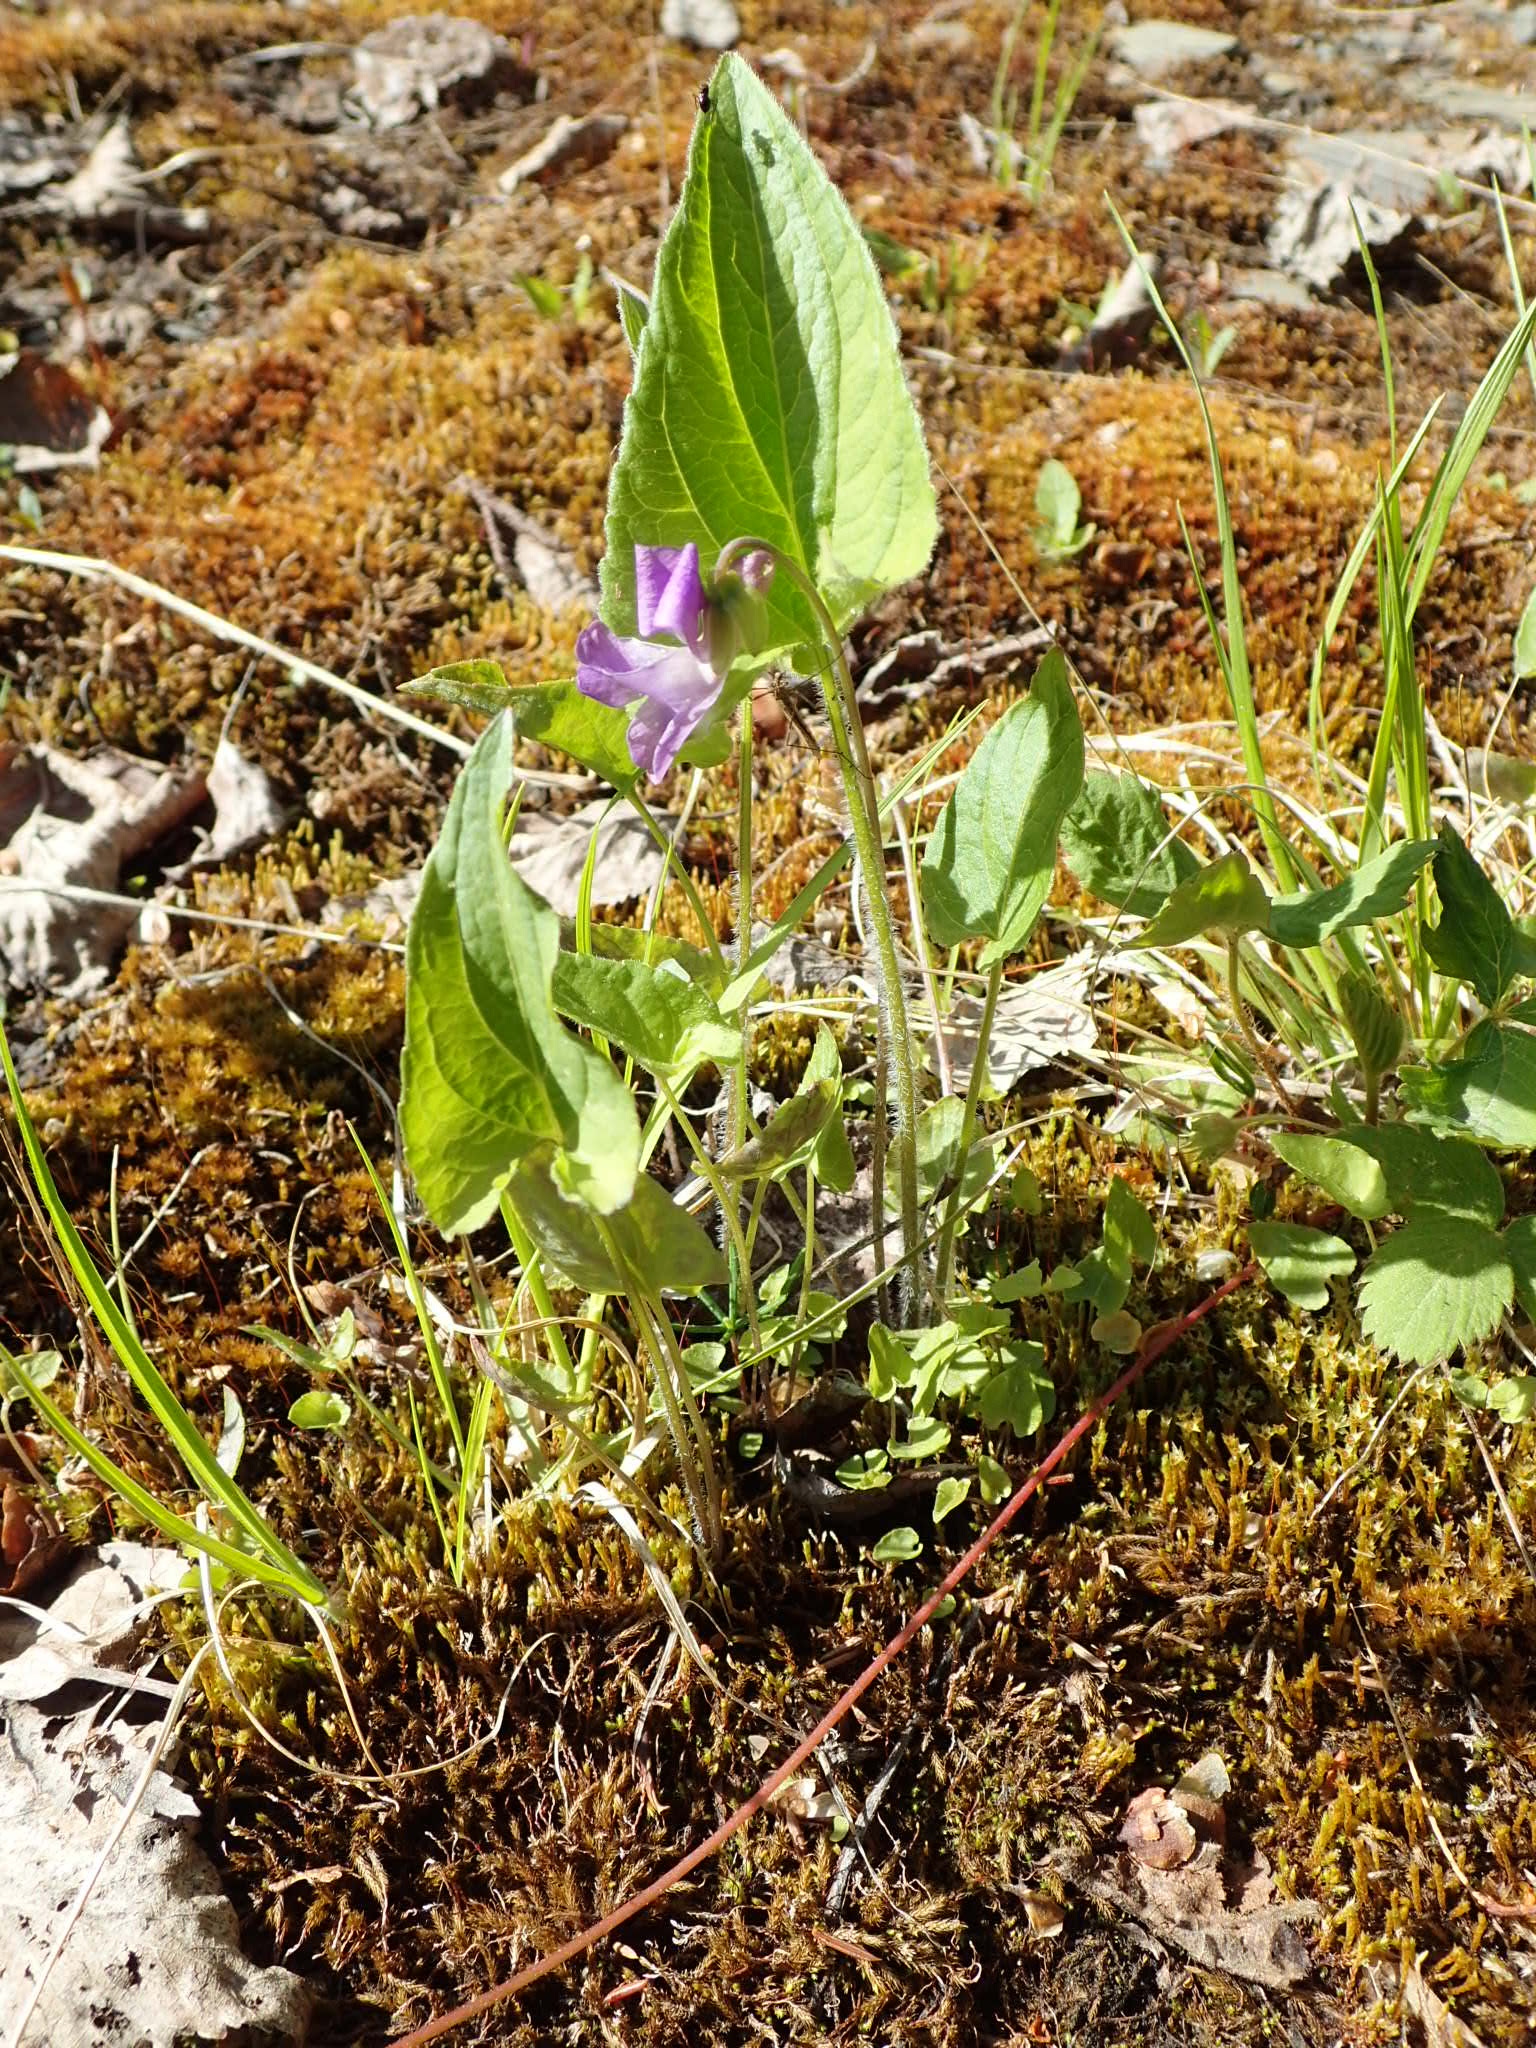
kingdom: Plantae
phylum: Tracheophyta
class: Magnoliopsida
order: Malpighiales
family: Violaceae
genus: Viola
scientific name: Viola novae-angliae
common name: New england blue violet
